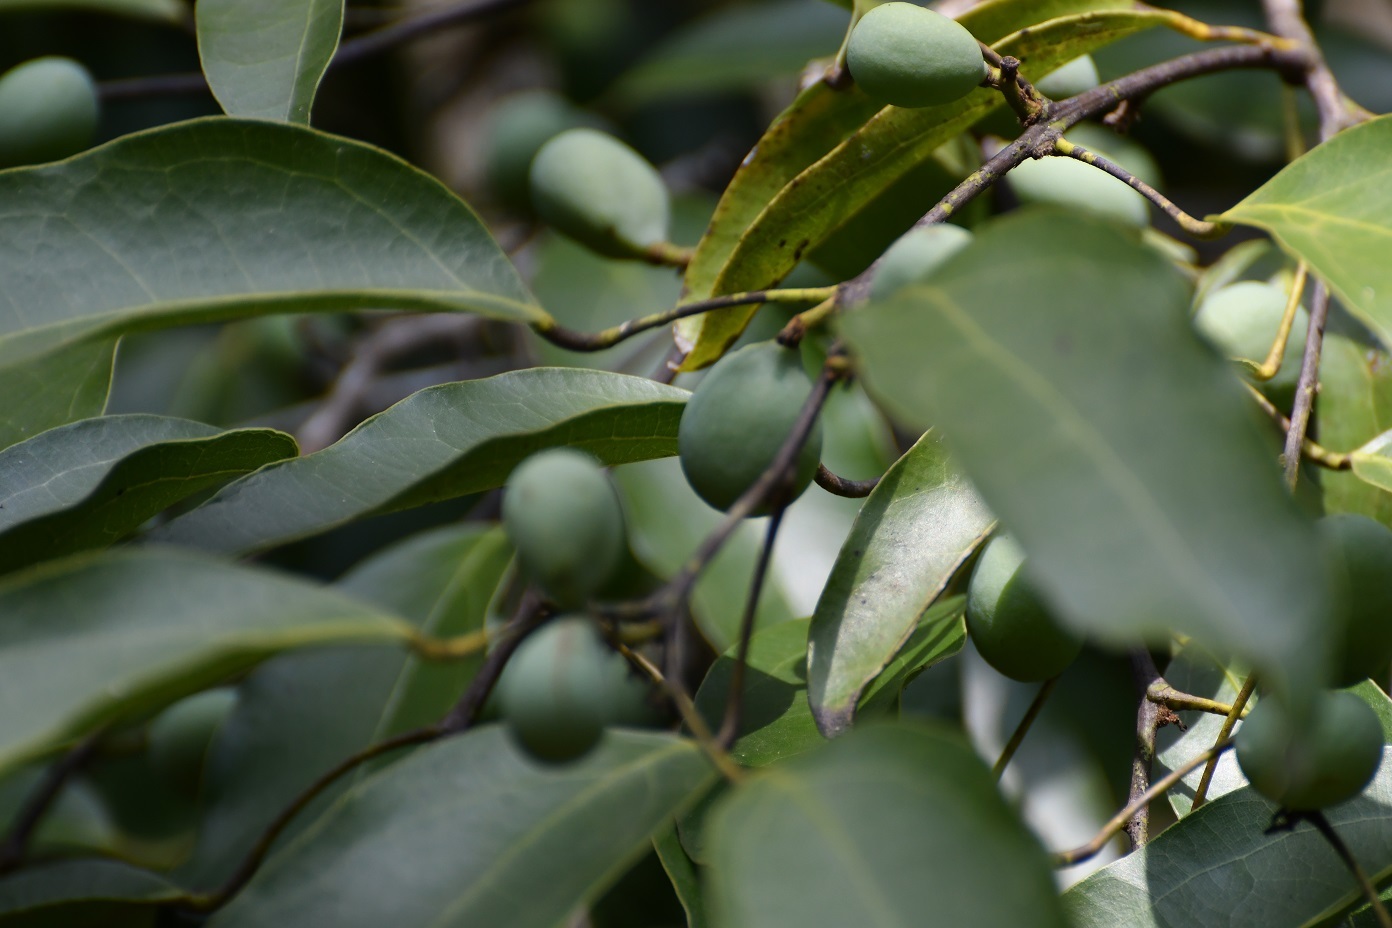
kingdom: Plantae
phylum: Tracheophyta
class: Magnoliopsida
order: Ranunculales
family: Menispermaceae
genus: Hyperbaena
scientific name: Hyperbaena mexicana
